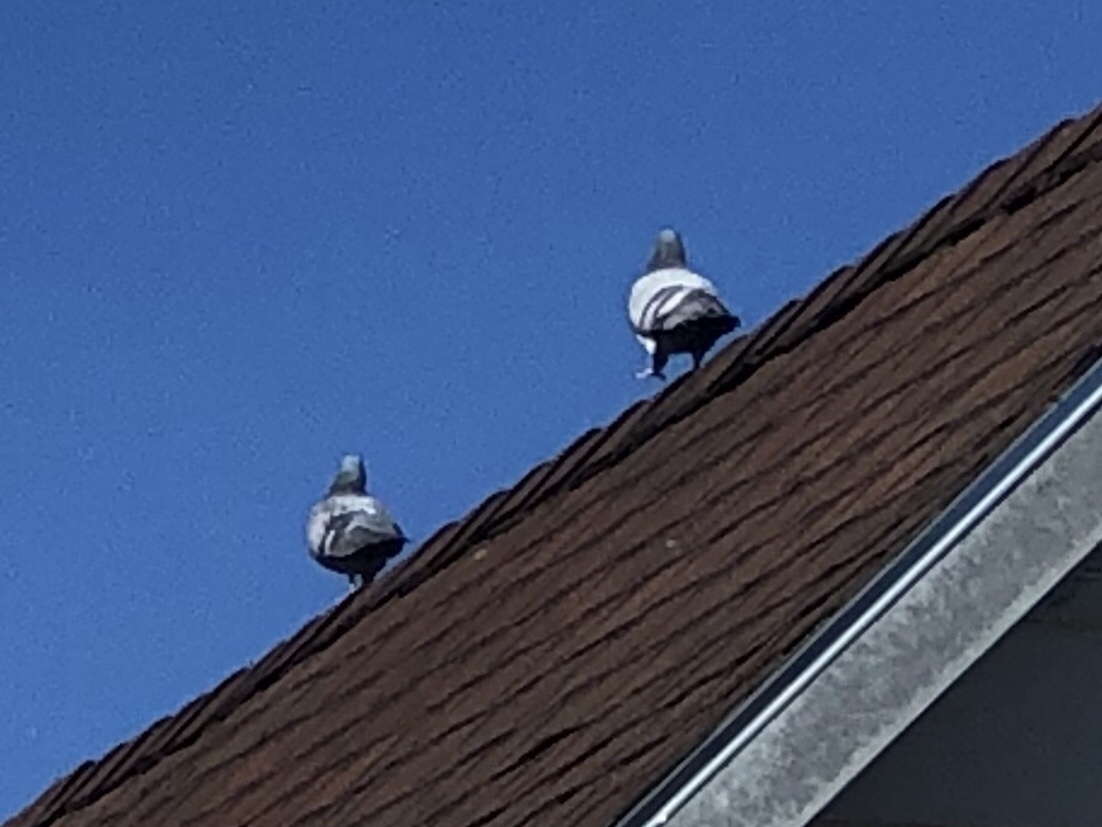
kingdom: Animalia
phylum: Chordata
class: Aves
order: Columbiformes
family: Columbidae
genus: Columba
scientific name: Columba livia
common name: Rock pigeon
